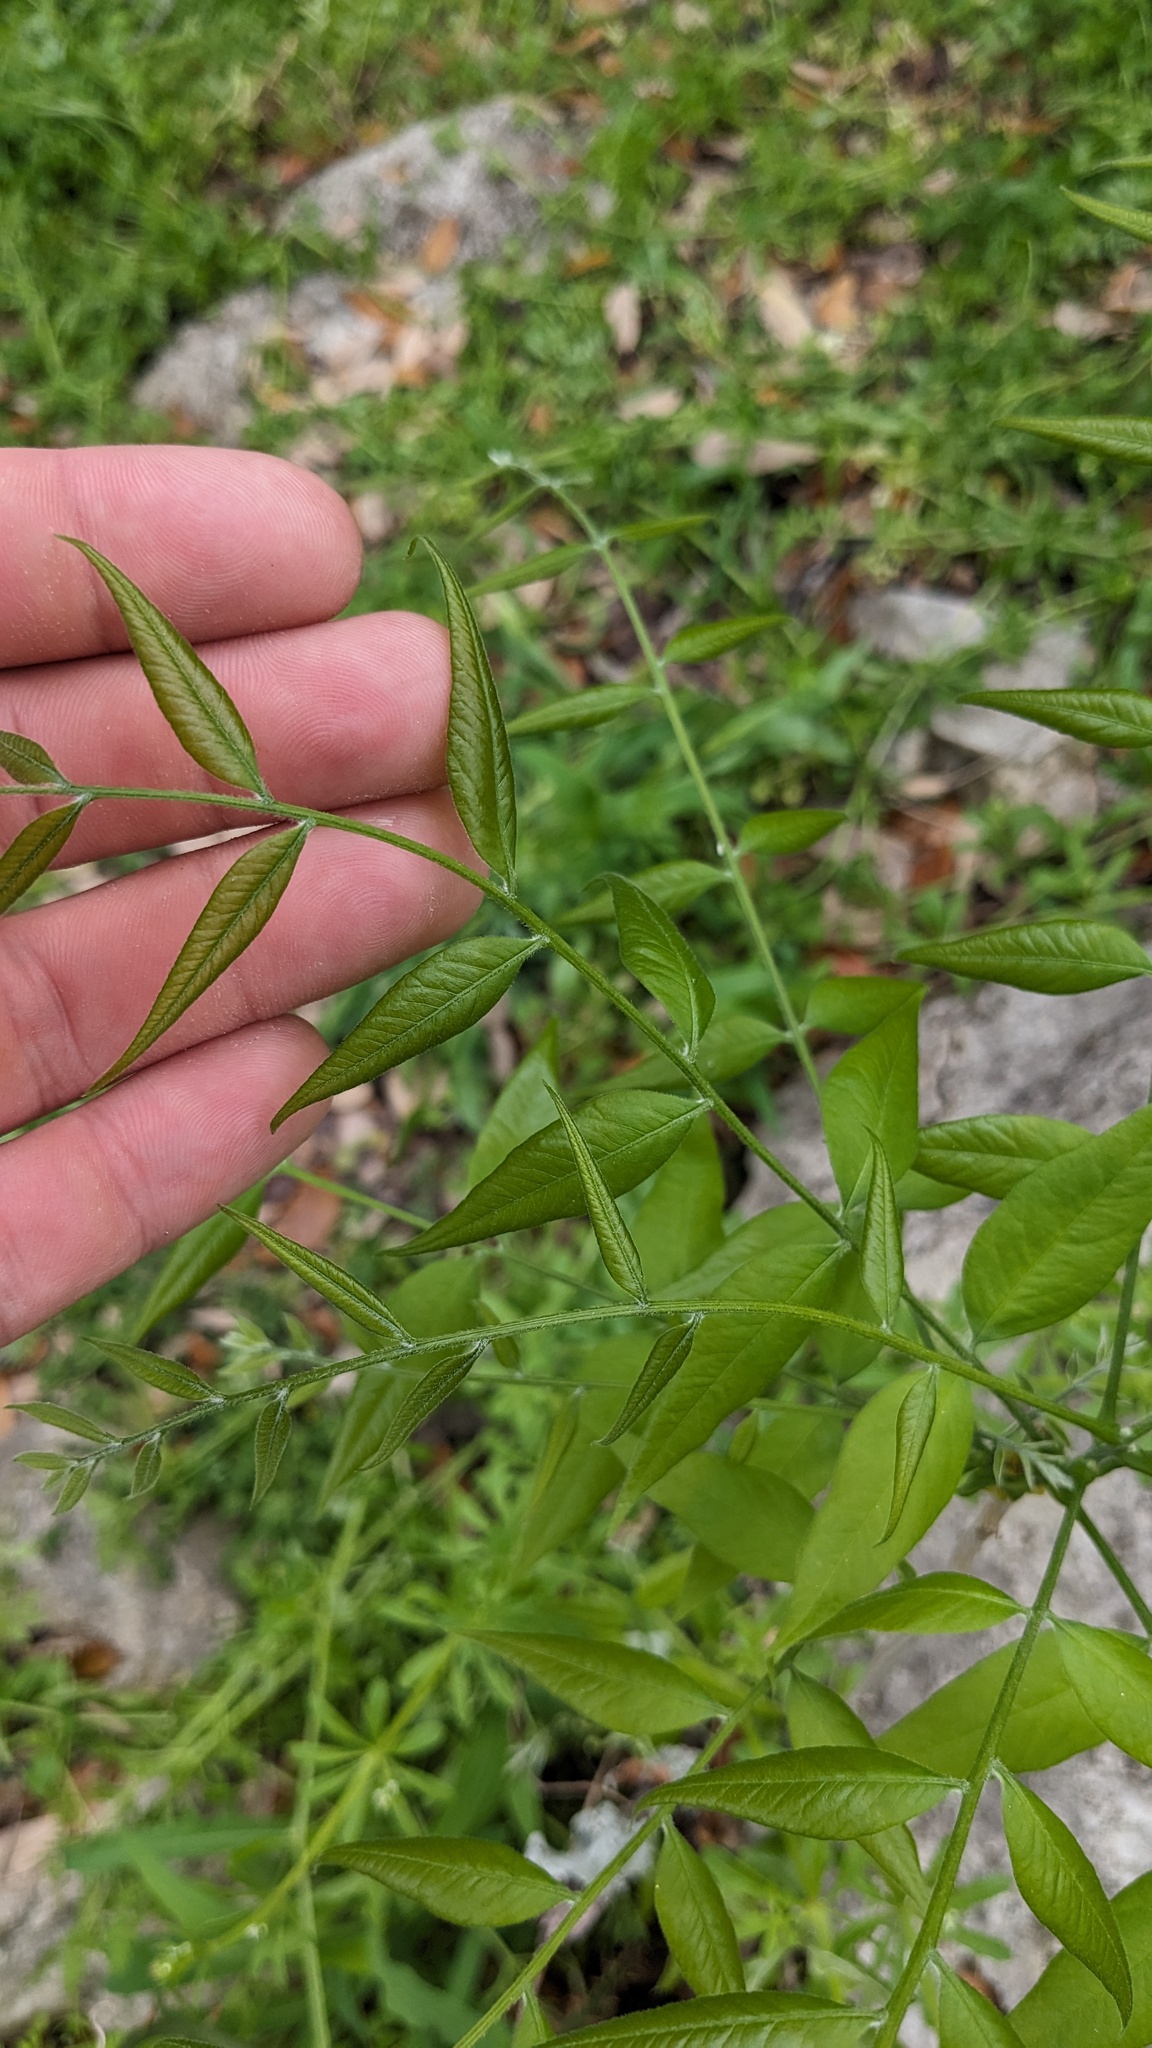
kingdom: Plantae
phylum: Tracheophyta
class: Magnoliopsida
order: Sapindales
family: Sapindaceae
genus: Sapindus
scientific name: Sapindus drummondii
